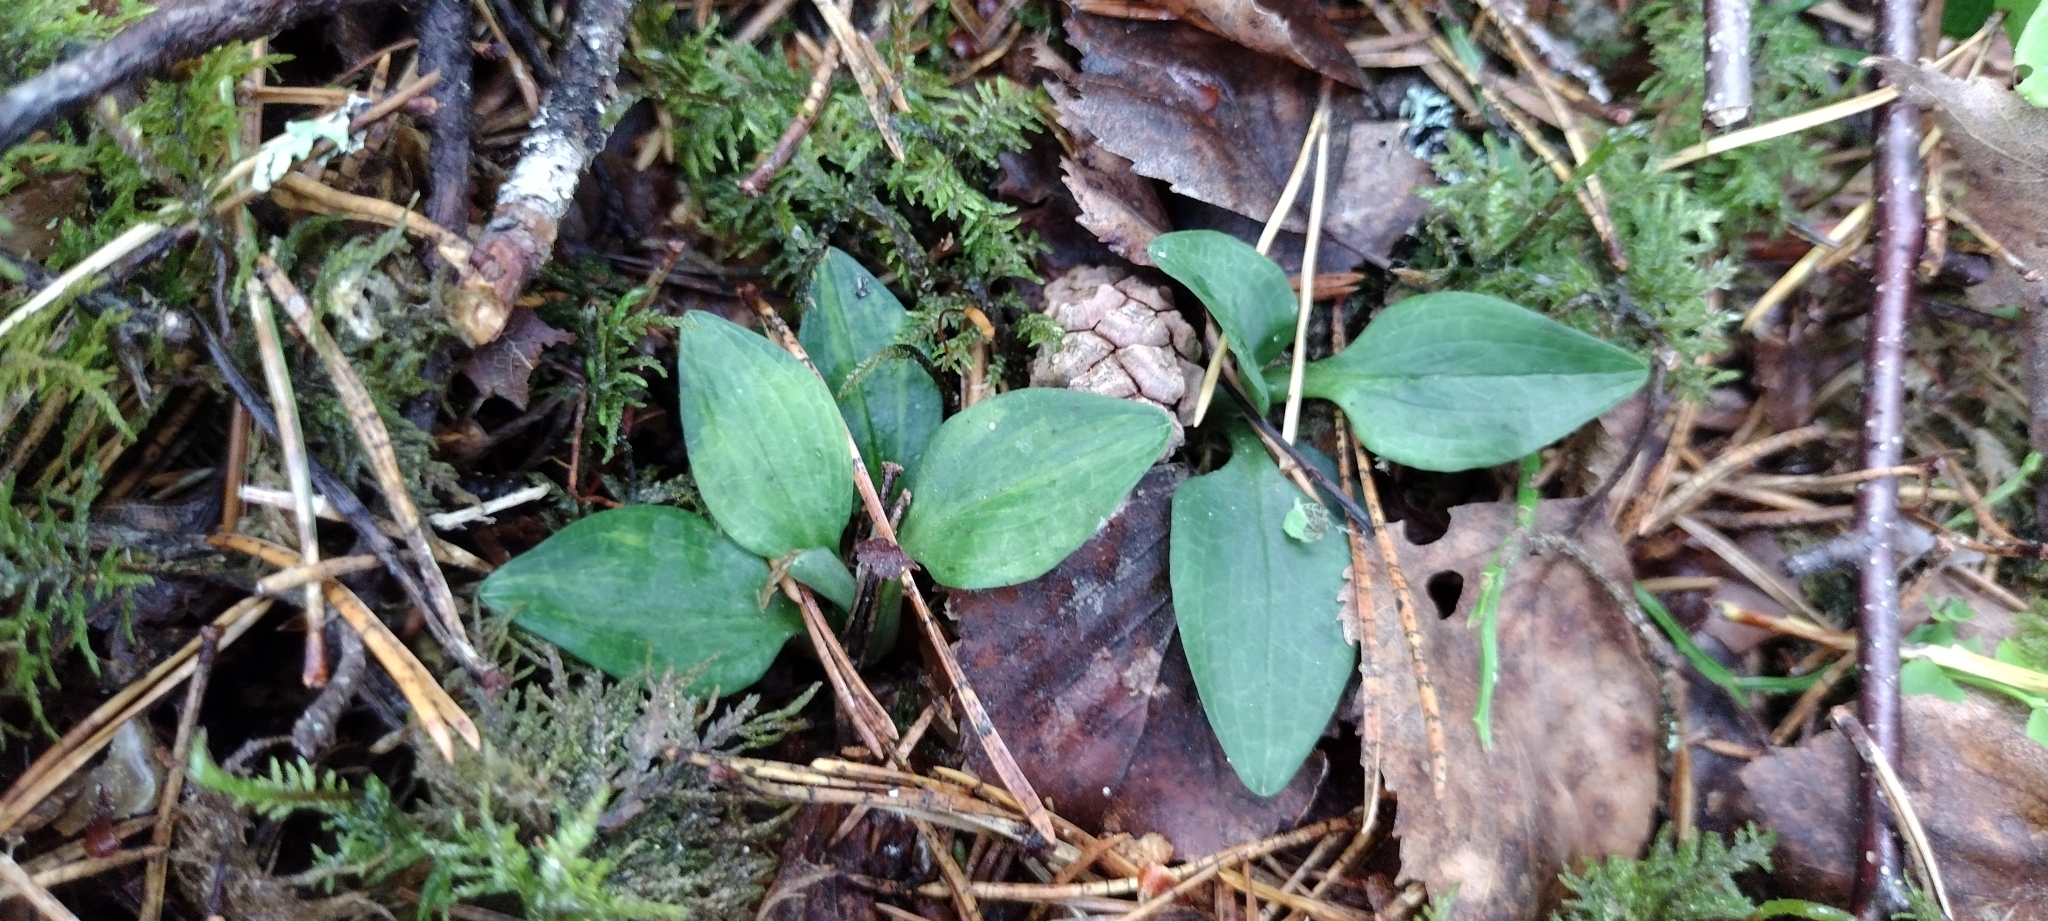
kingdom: Plantae
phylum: Tracheophyta
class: Liliopsida
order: Asparagales
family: Orchidaceae
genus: Goodyera
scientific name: Goodyera repens
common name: Creeping lady's-tresses
